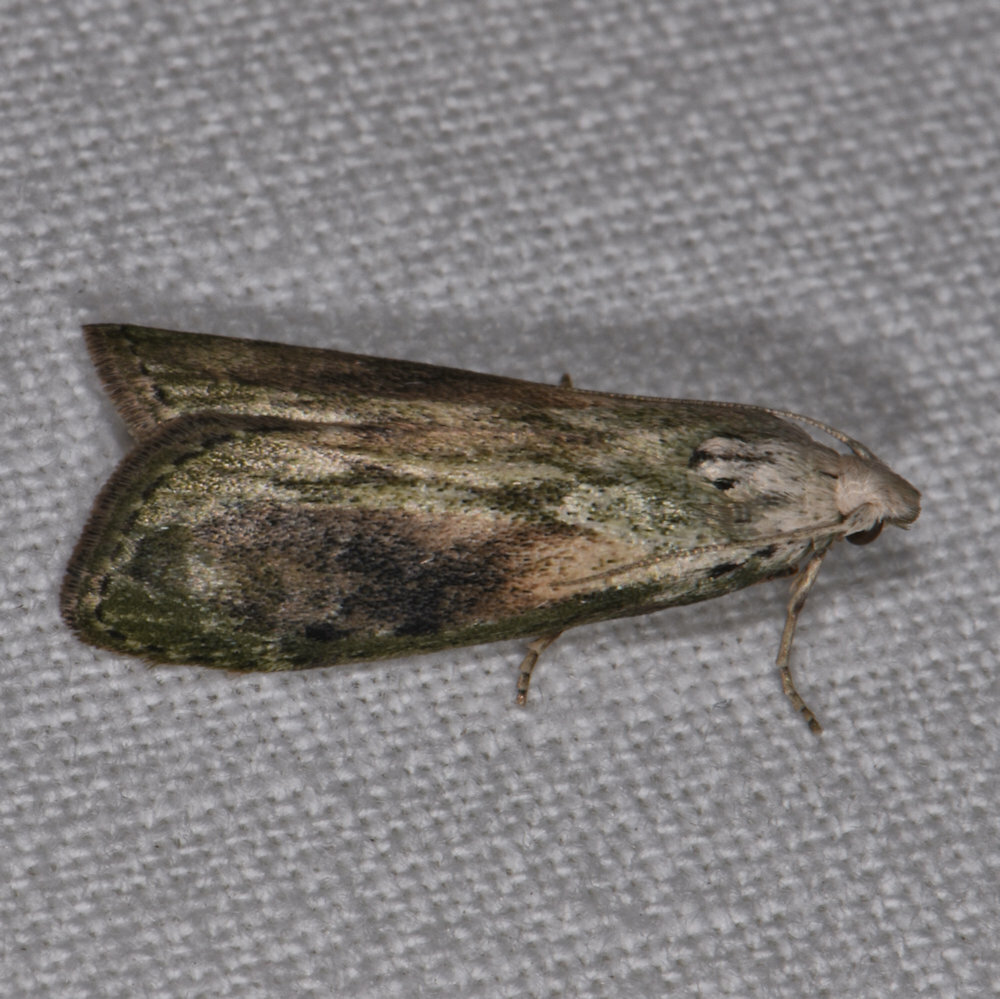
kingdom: Animalia
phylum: Arthropoda
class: Insecta
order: Lepidoptera
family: Pyralidae
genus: Aphomia
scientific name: Aphomia sociella
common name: Bee moth
